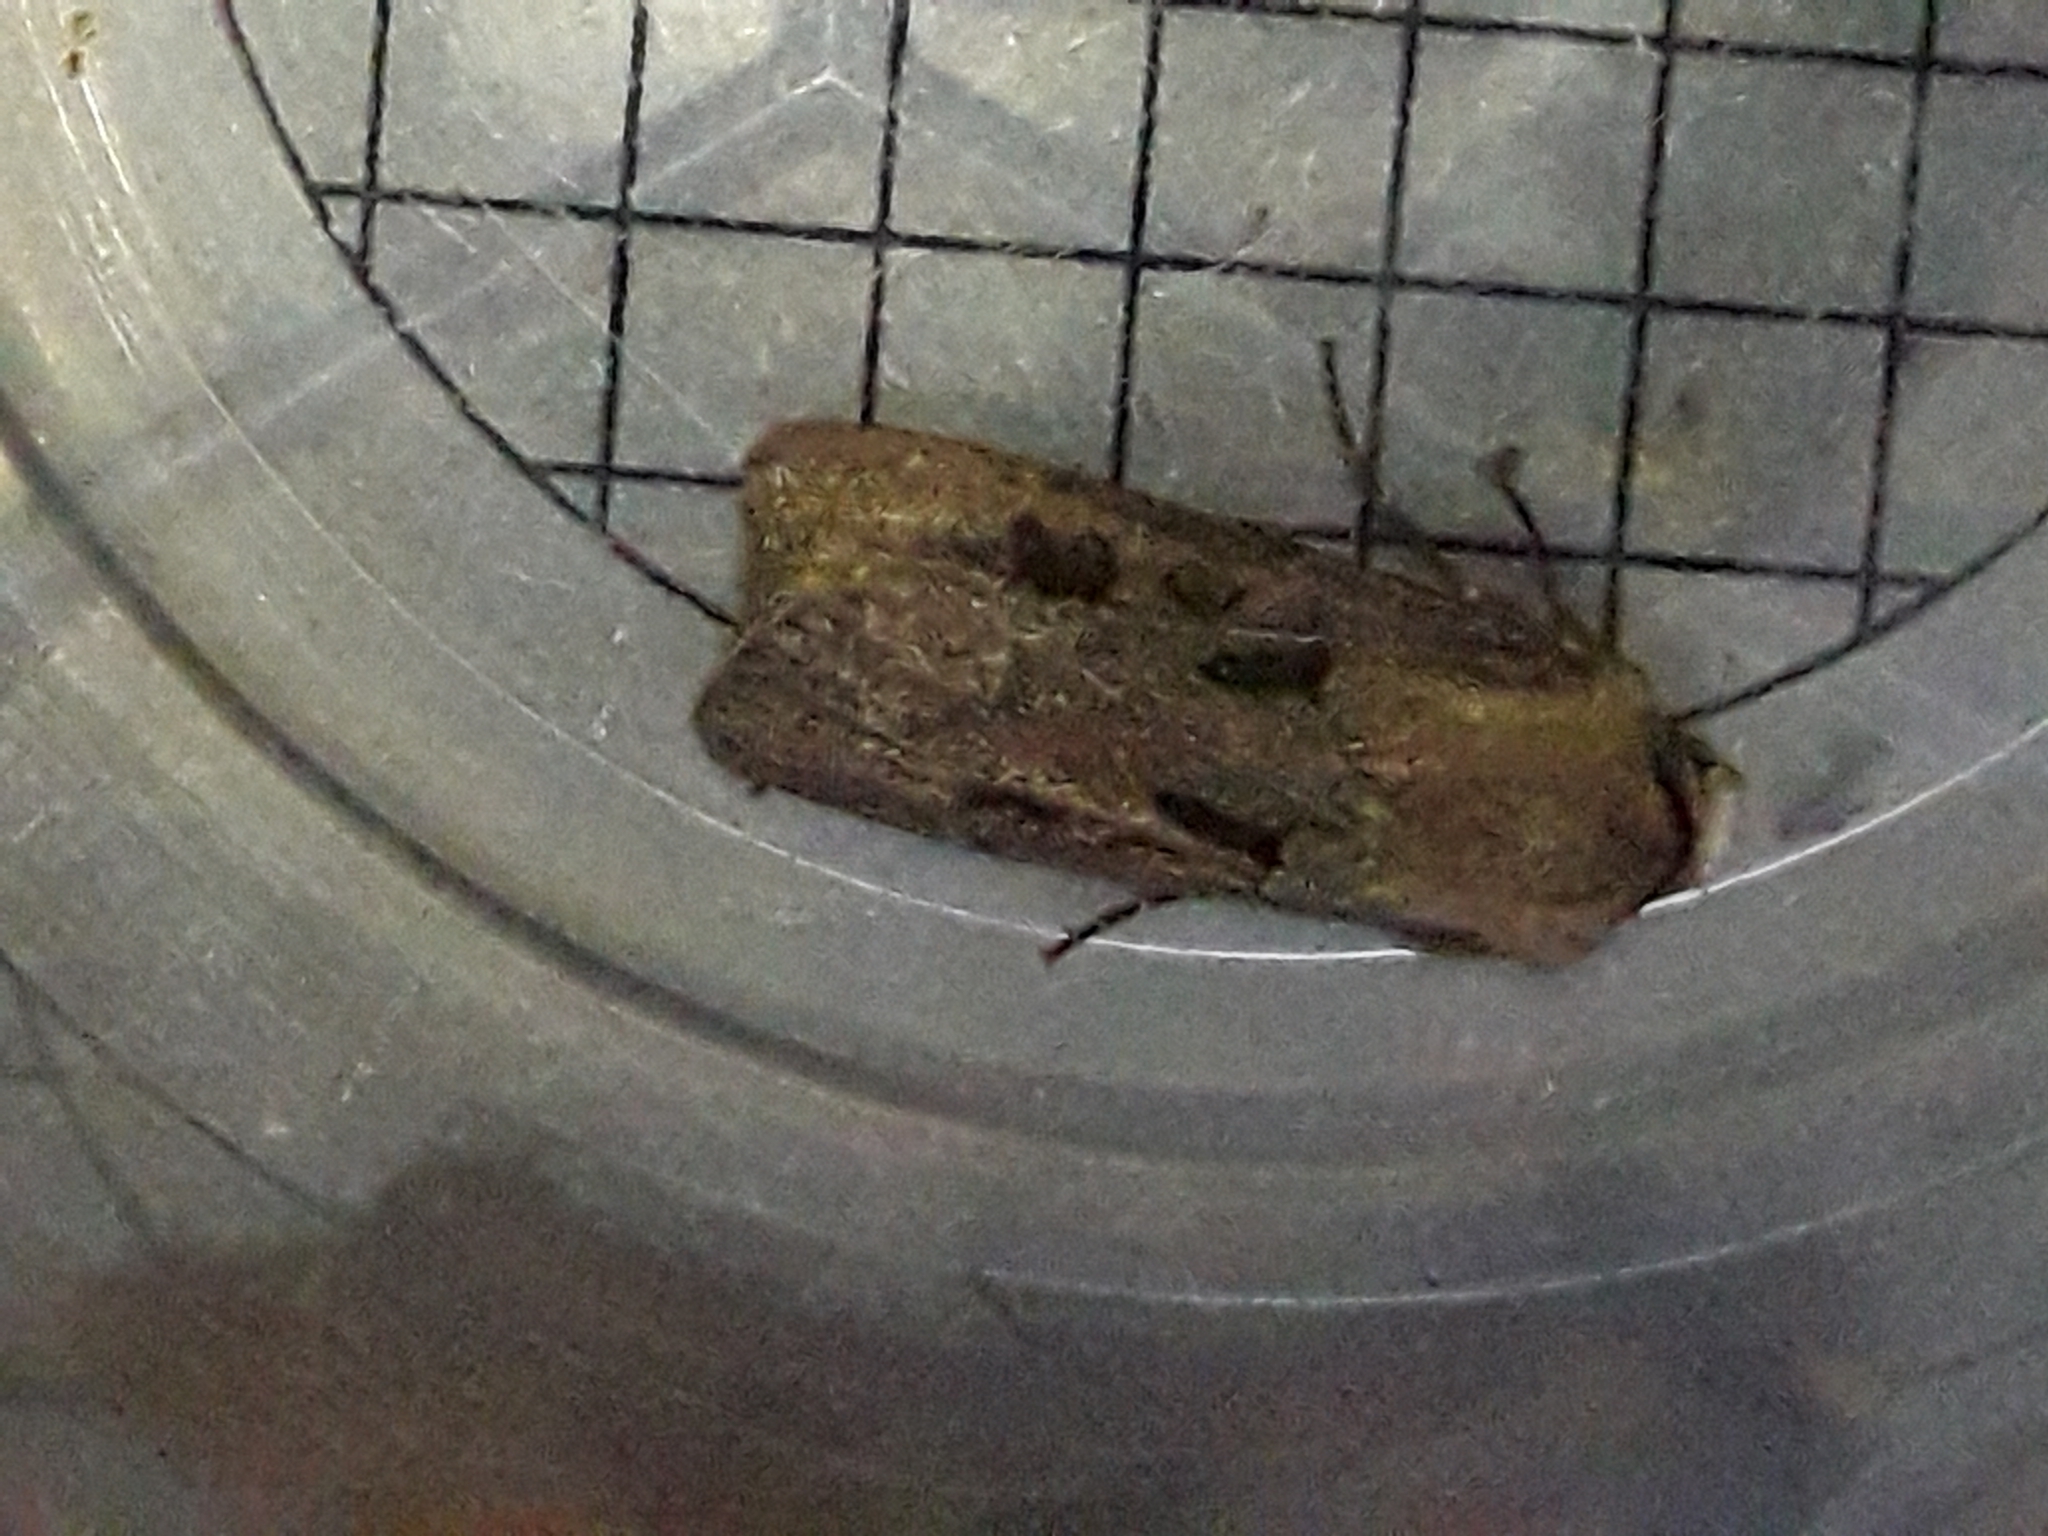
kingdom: Animalia
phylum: Arthropoda
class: Insecta
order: Lepidoptera
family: Noctuidae
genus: Agrotis
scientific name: Agrotis exclamationis
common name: Heart and dart
